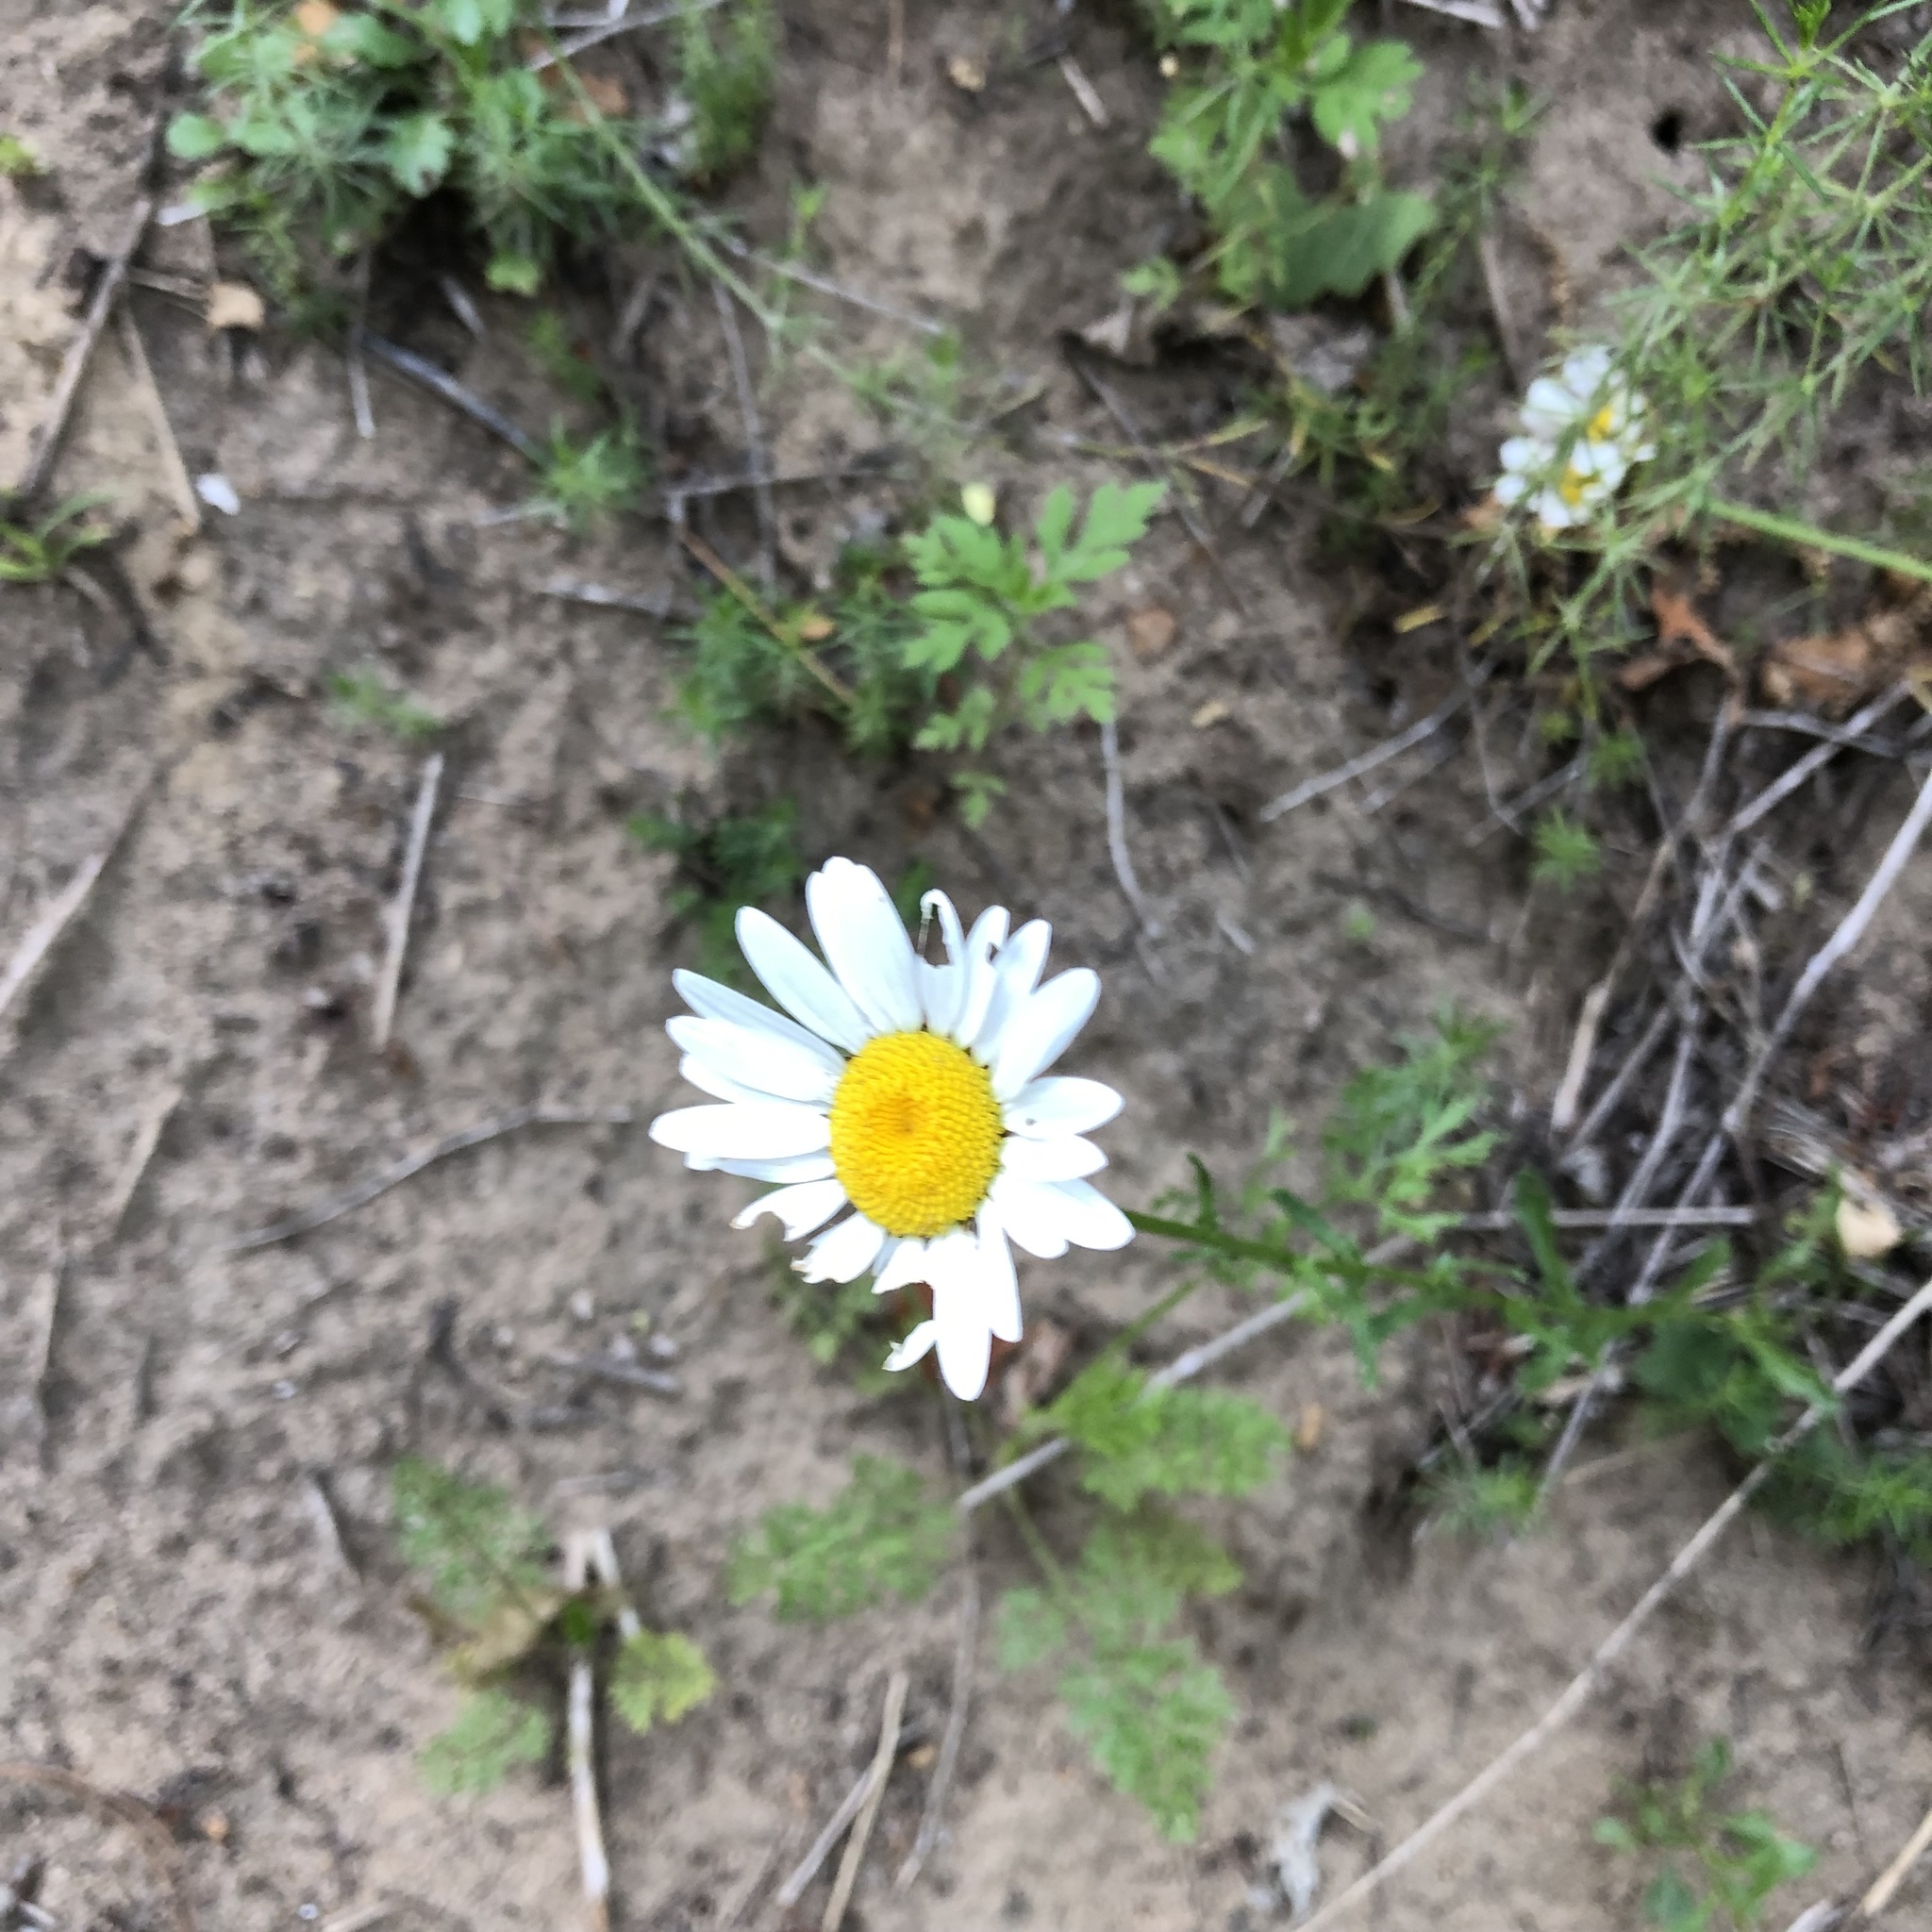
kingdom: Plantae
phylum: Tracheophyta
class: Magnoliopsida
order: Asterales
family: Asteraceae
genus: Leucanthemum
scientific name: Leucanthemum vulgare
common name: Oxeye daisy
